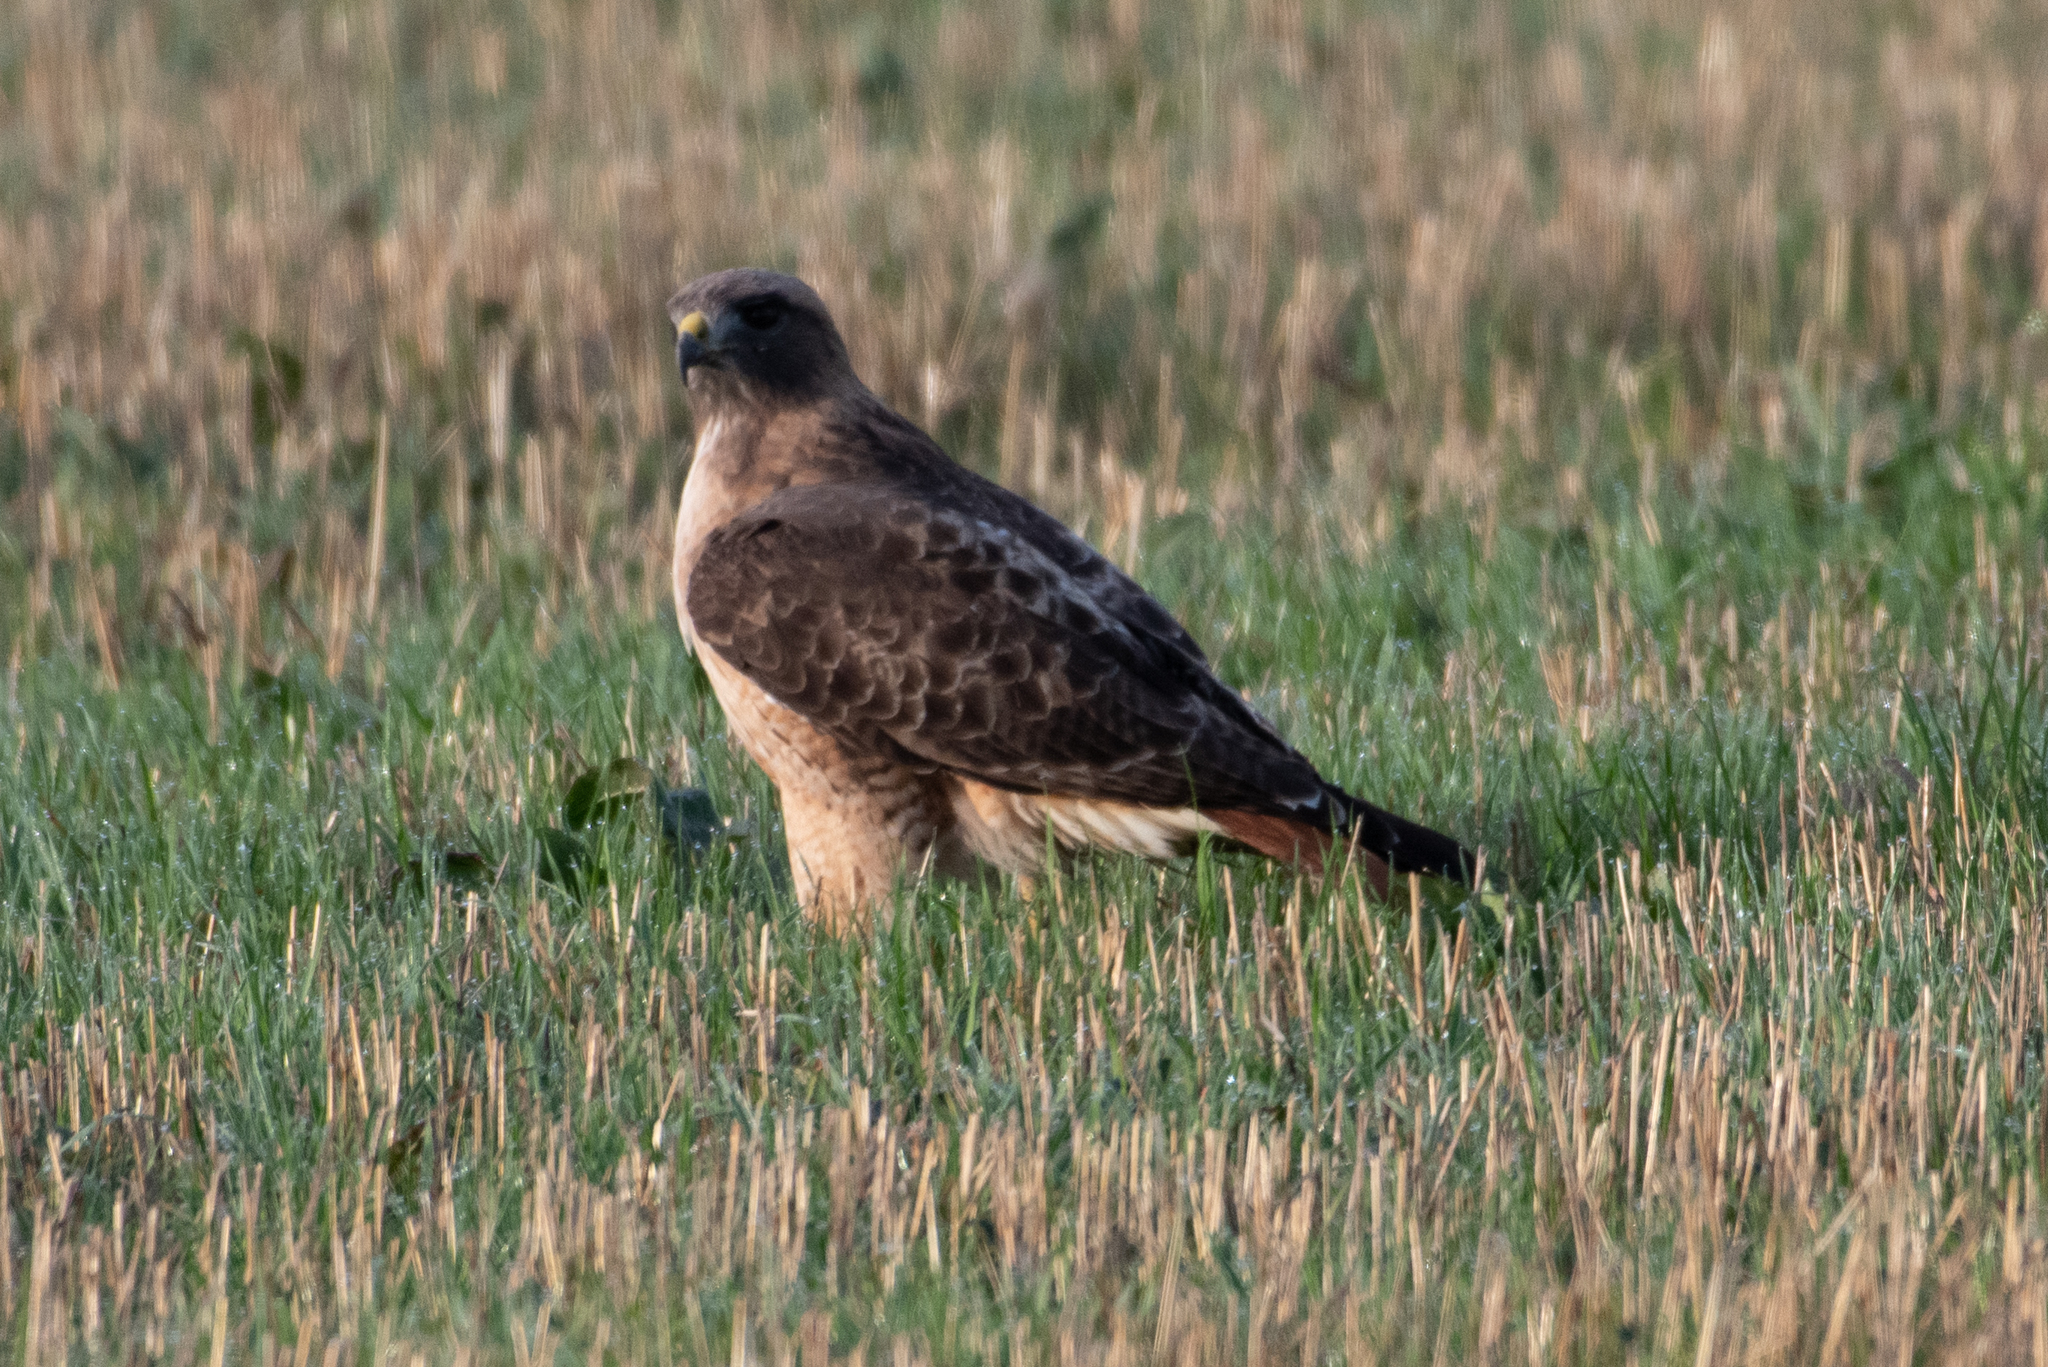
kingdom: Animalia
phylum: Chordata
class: Aves
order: Accipitriformes
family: Accipitridae
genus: Buteo
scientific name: Buteo jamaicensis
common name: Red-tailed hawk
